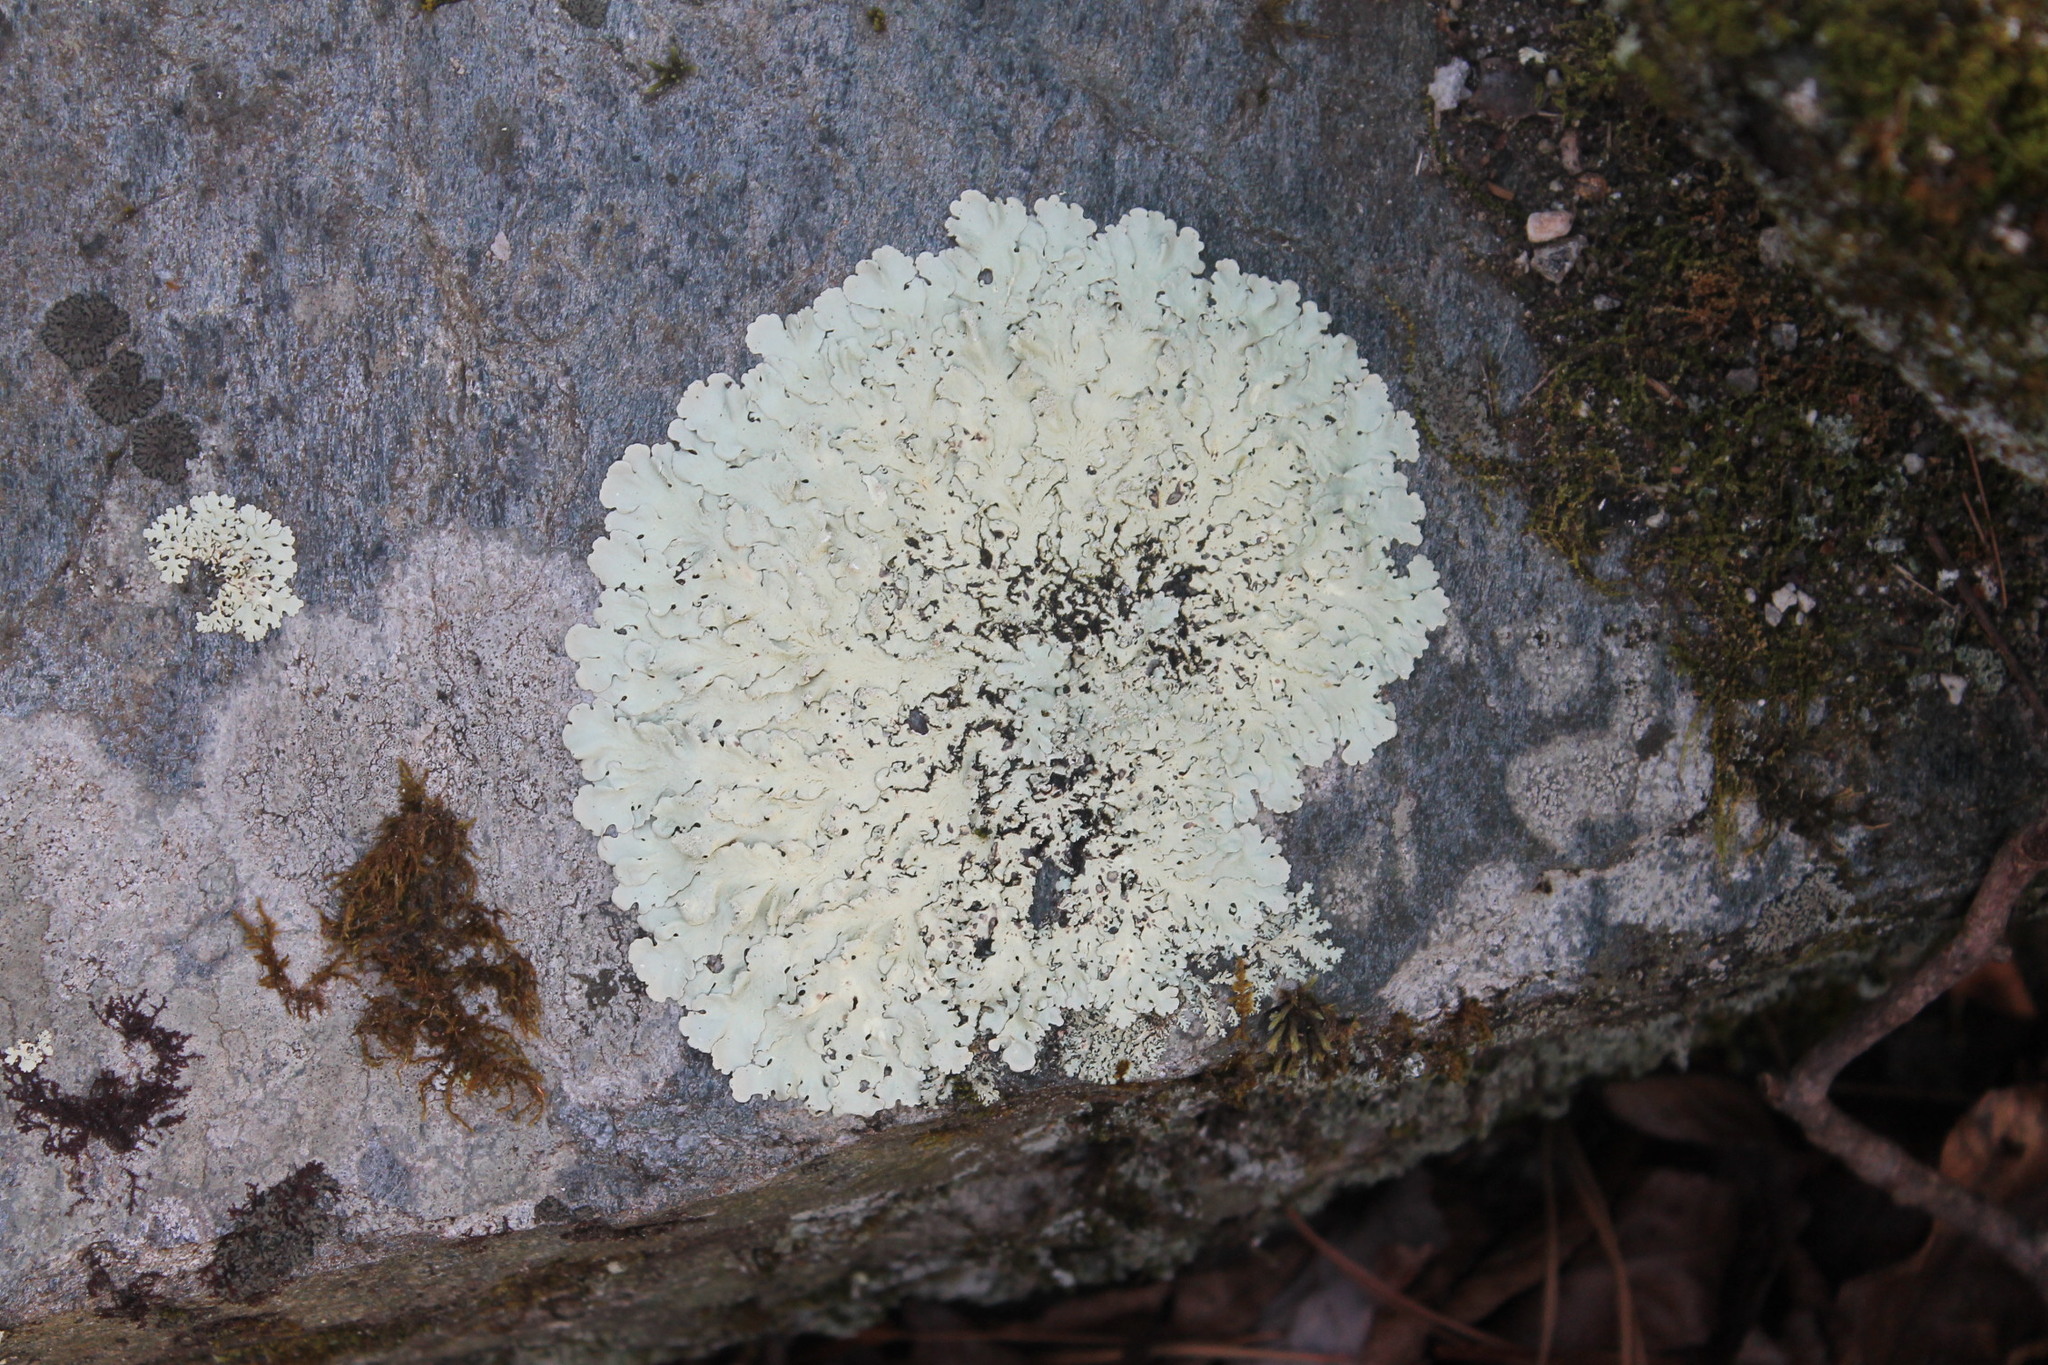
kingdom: Fungi
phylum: Ascomycota
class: Lecanoromycetes
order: Lecanorales
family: Parmeliaceae
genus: Flavoparmelia
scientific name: Flavoparmelia baltimorensis
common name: Rock greenshield
